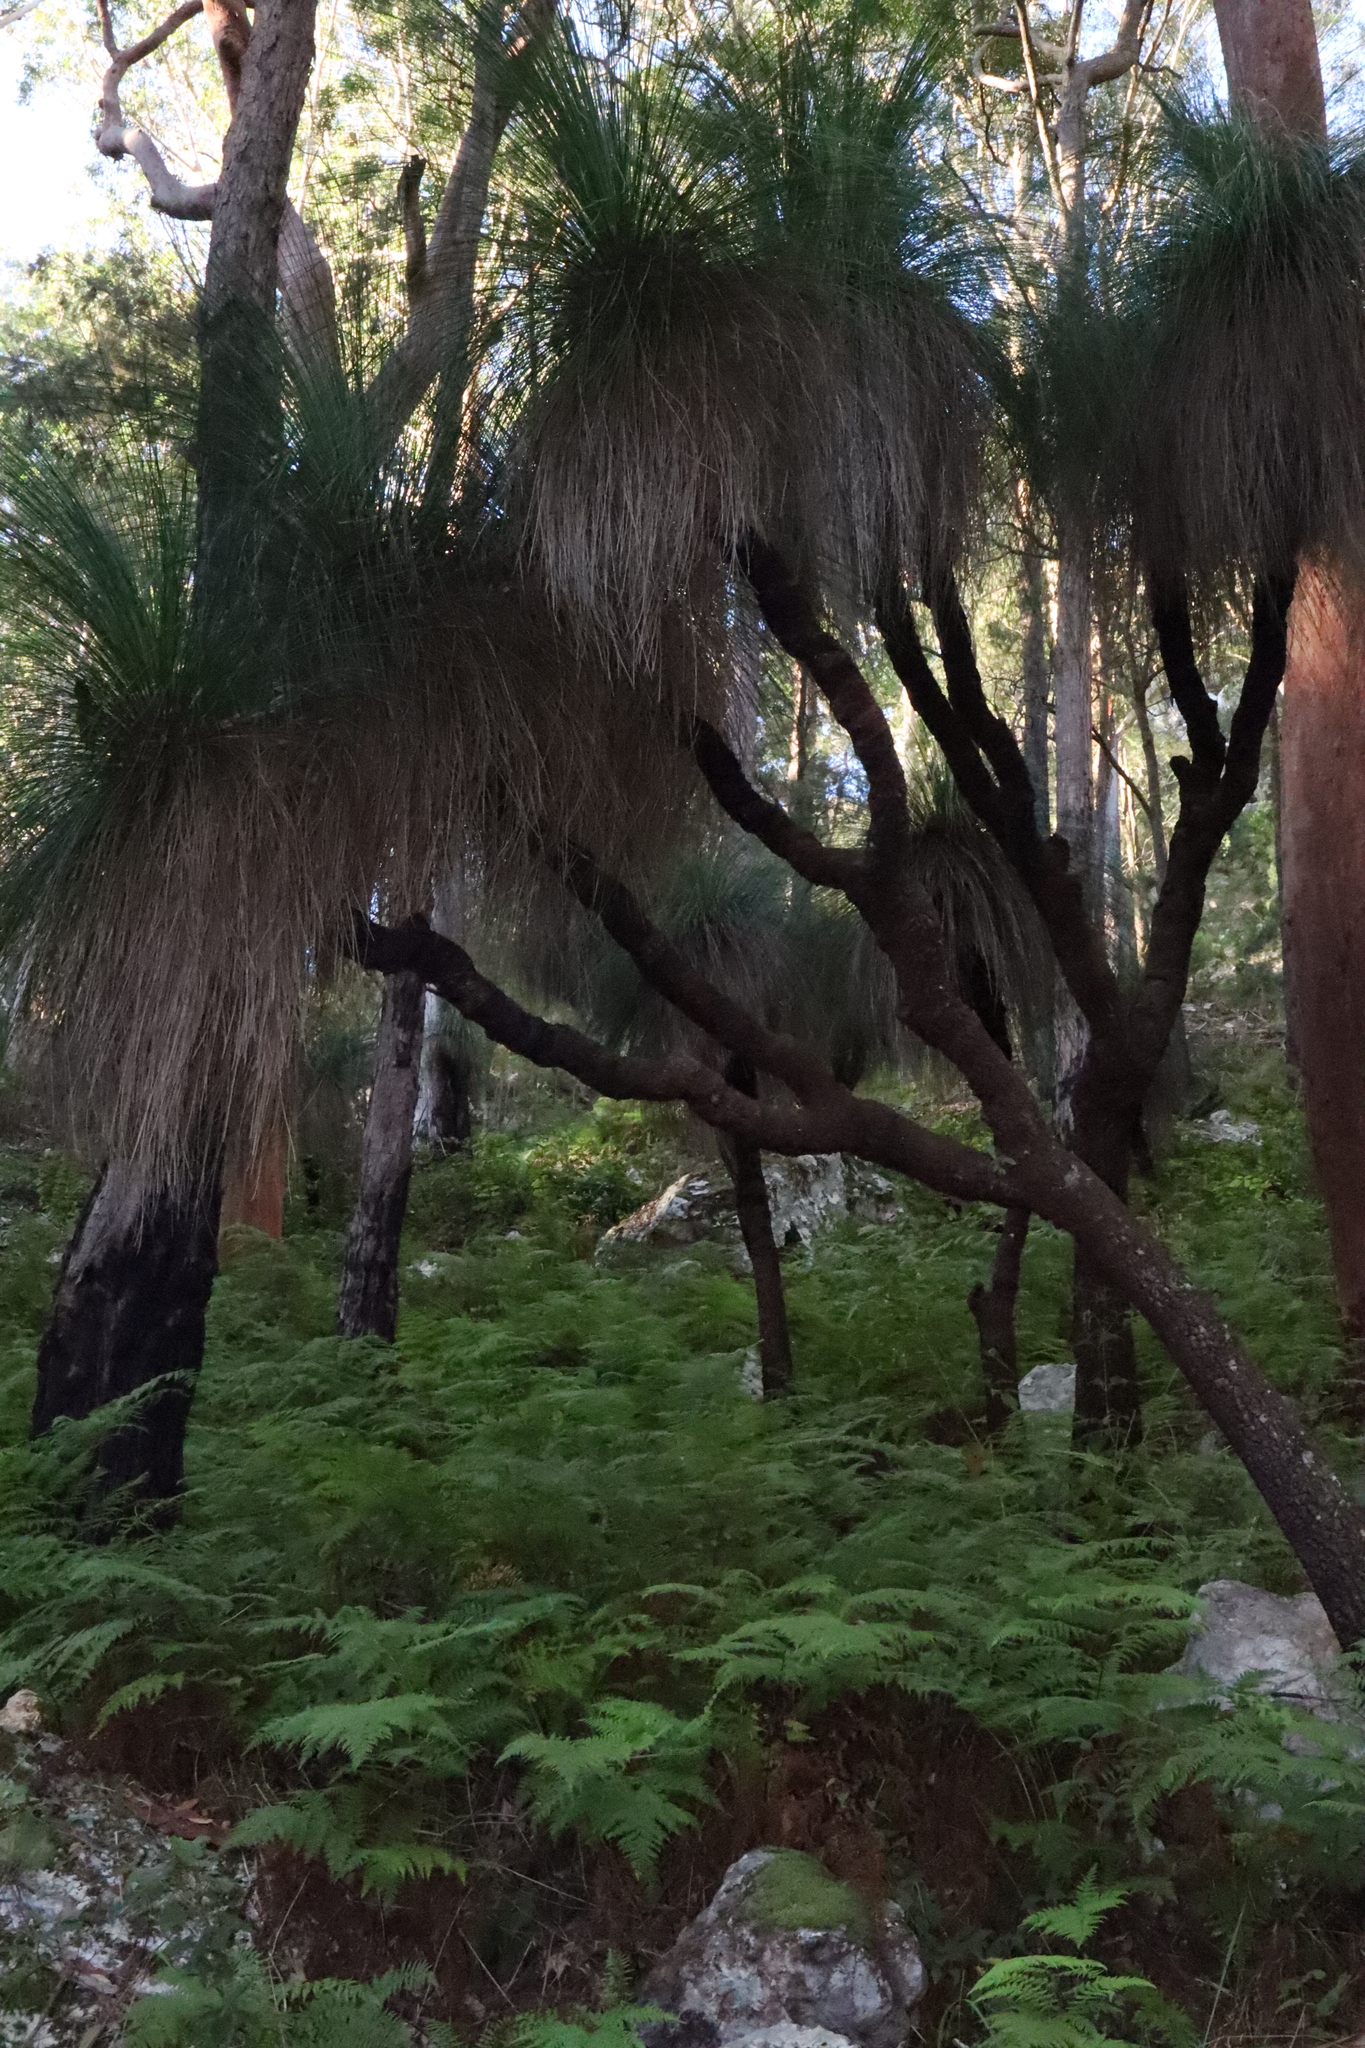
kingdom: Plantae
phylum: Tracheophyta
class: Liliopsida
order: Asparagales
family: Asphodelaceae
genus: Xanthorrhoea
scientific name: Xanthorrhoea malacophylla
